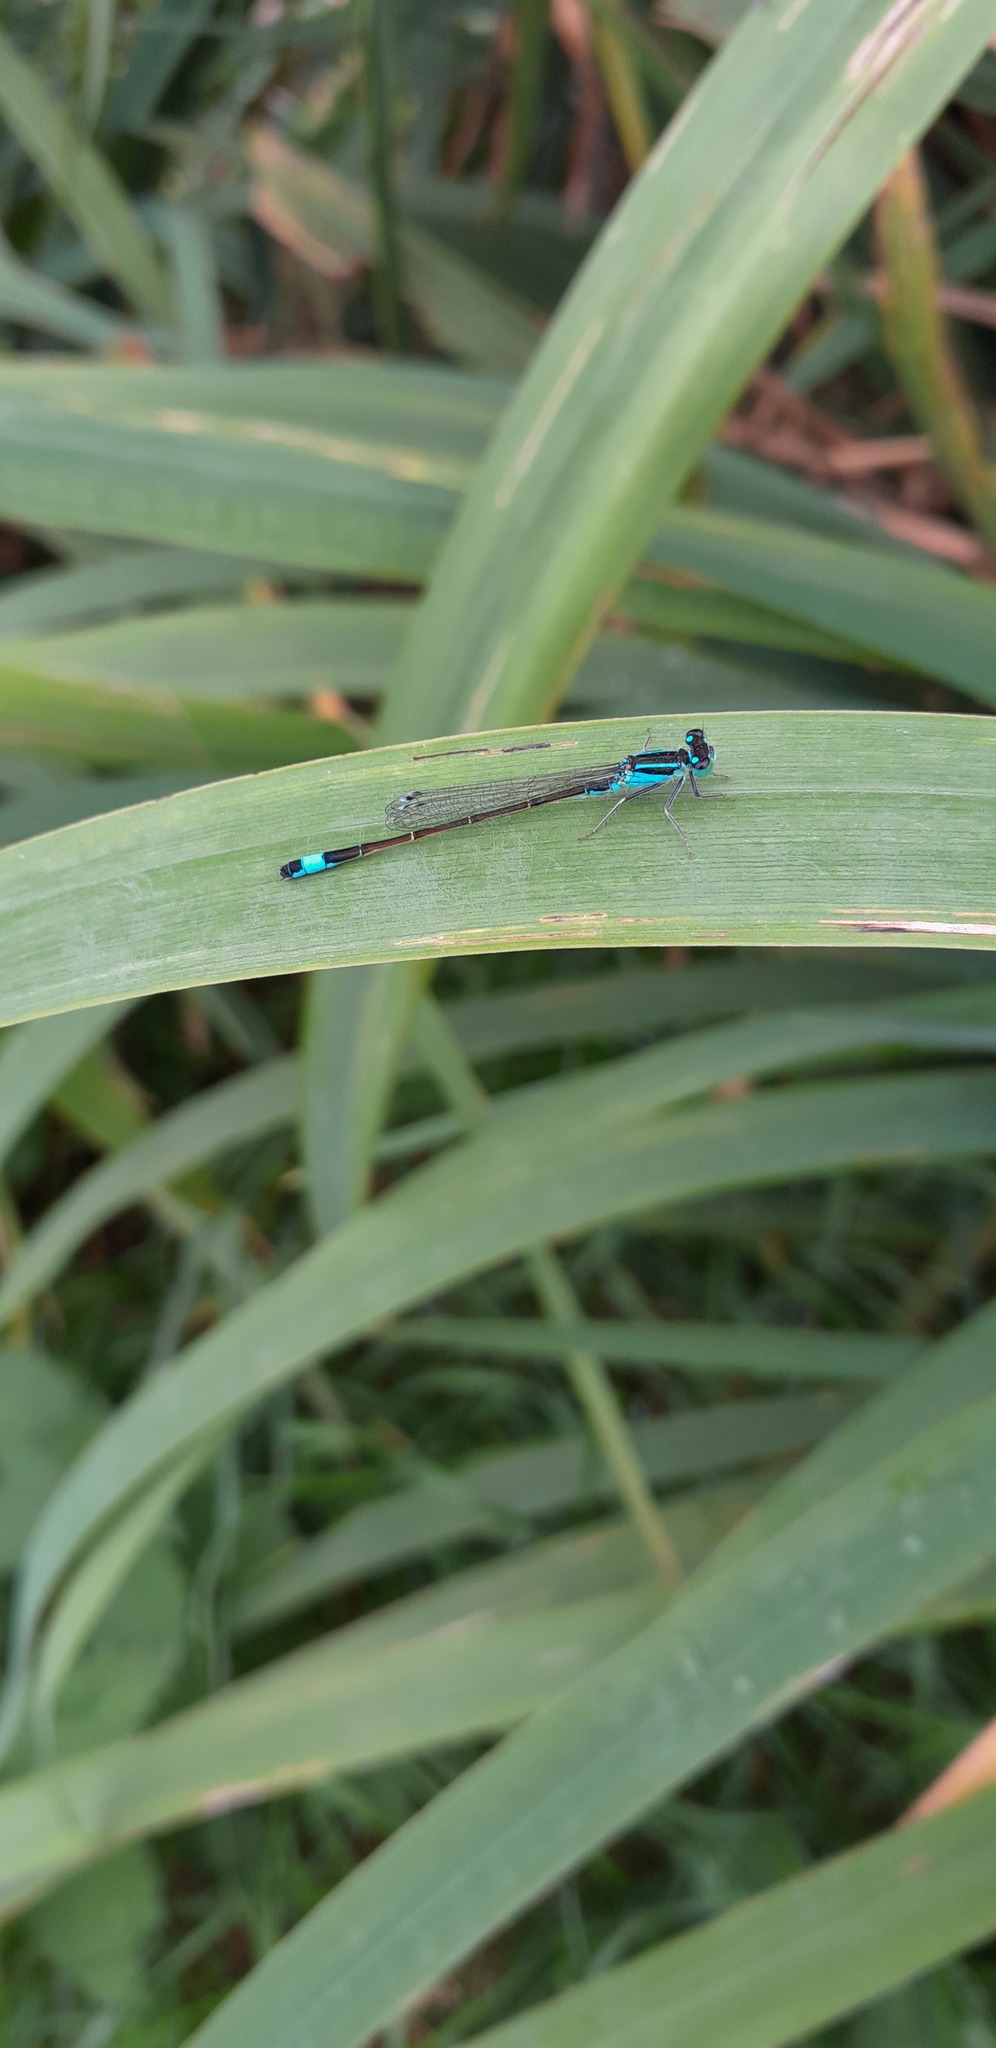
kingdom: Animalia
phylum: Arthropoda
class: Insecta
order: Odonata
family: Coenagrionidae
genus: Ischnura
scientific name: Ischnura elegans
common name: Blue-tailed damselfly
